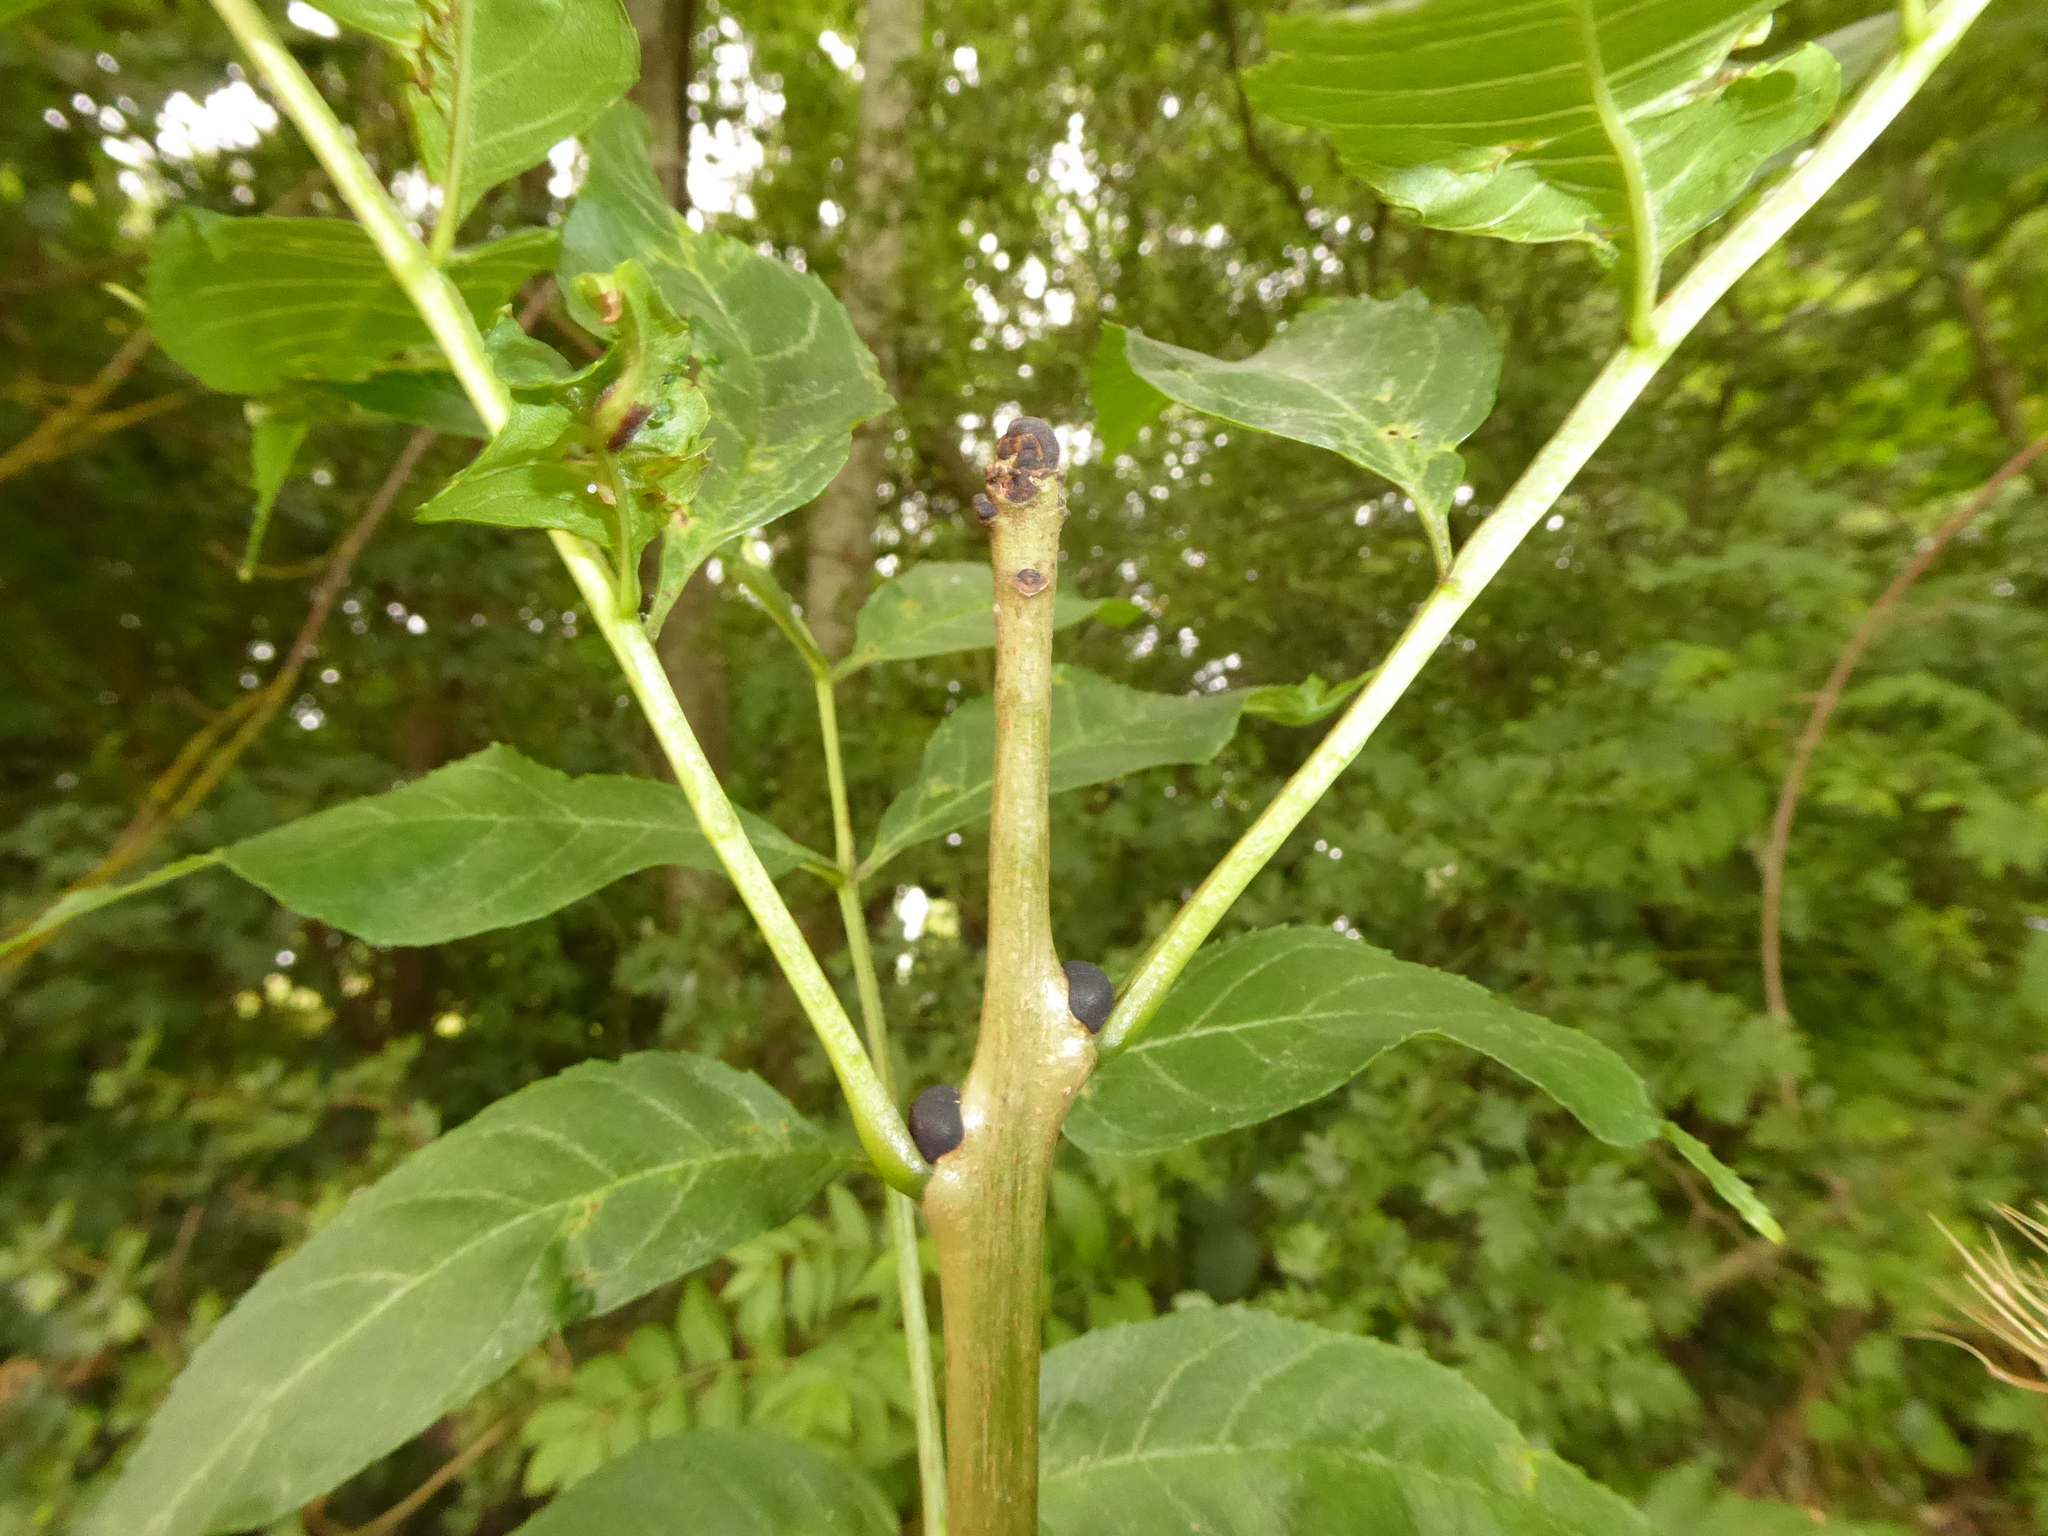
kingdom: Plantae
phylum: Tracheophyta
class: Magnoliopsida
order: Lamiales
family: Oleaceae
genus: Fraxinus
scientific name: Fraxinus excelsior
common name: European ash
